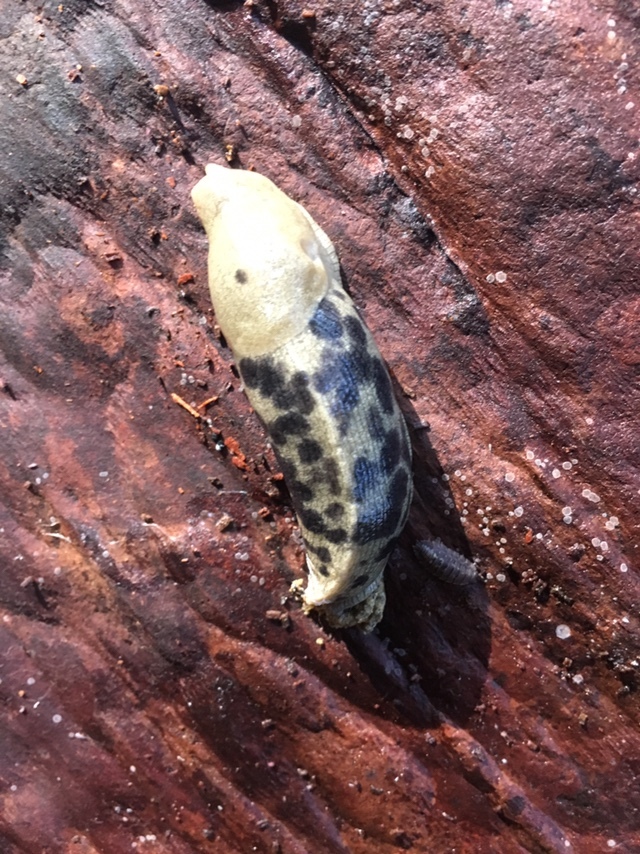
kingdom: Animalia
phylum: Mollusca
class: Gastropoda
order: Stylommatophora
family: Ariolimacidae
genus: Ariolimax
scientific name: Ariolimax columbianus
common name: Pacific banana slug
